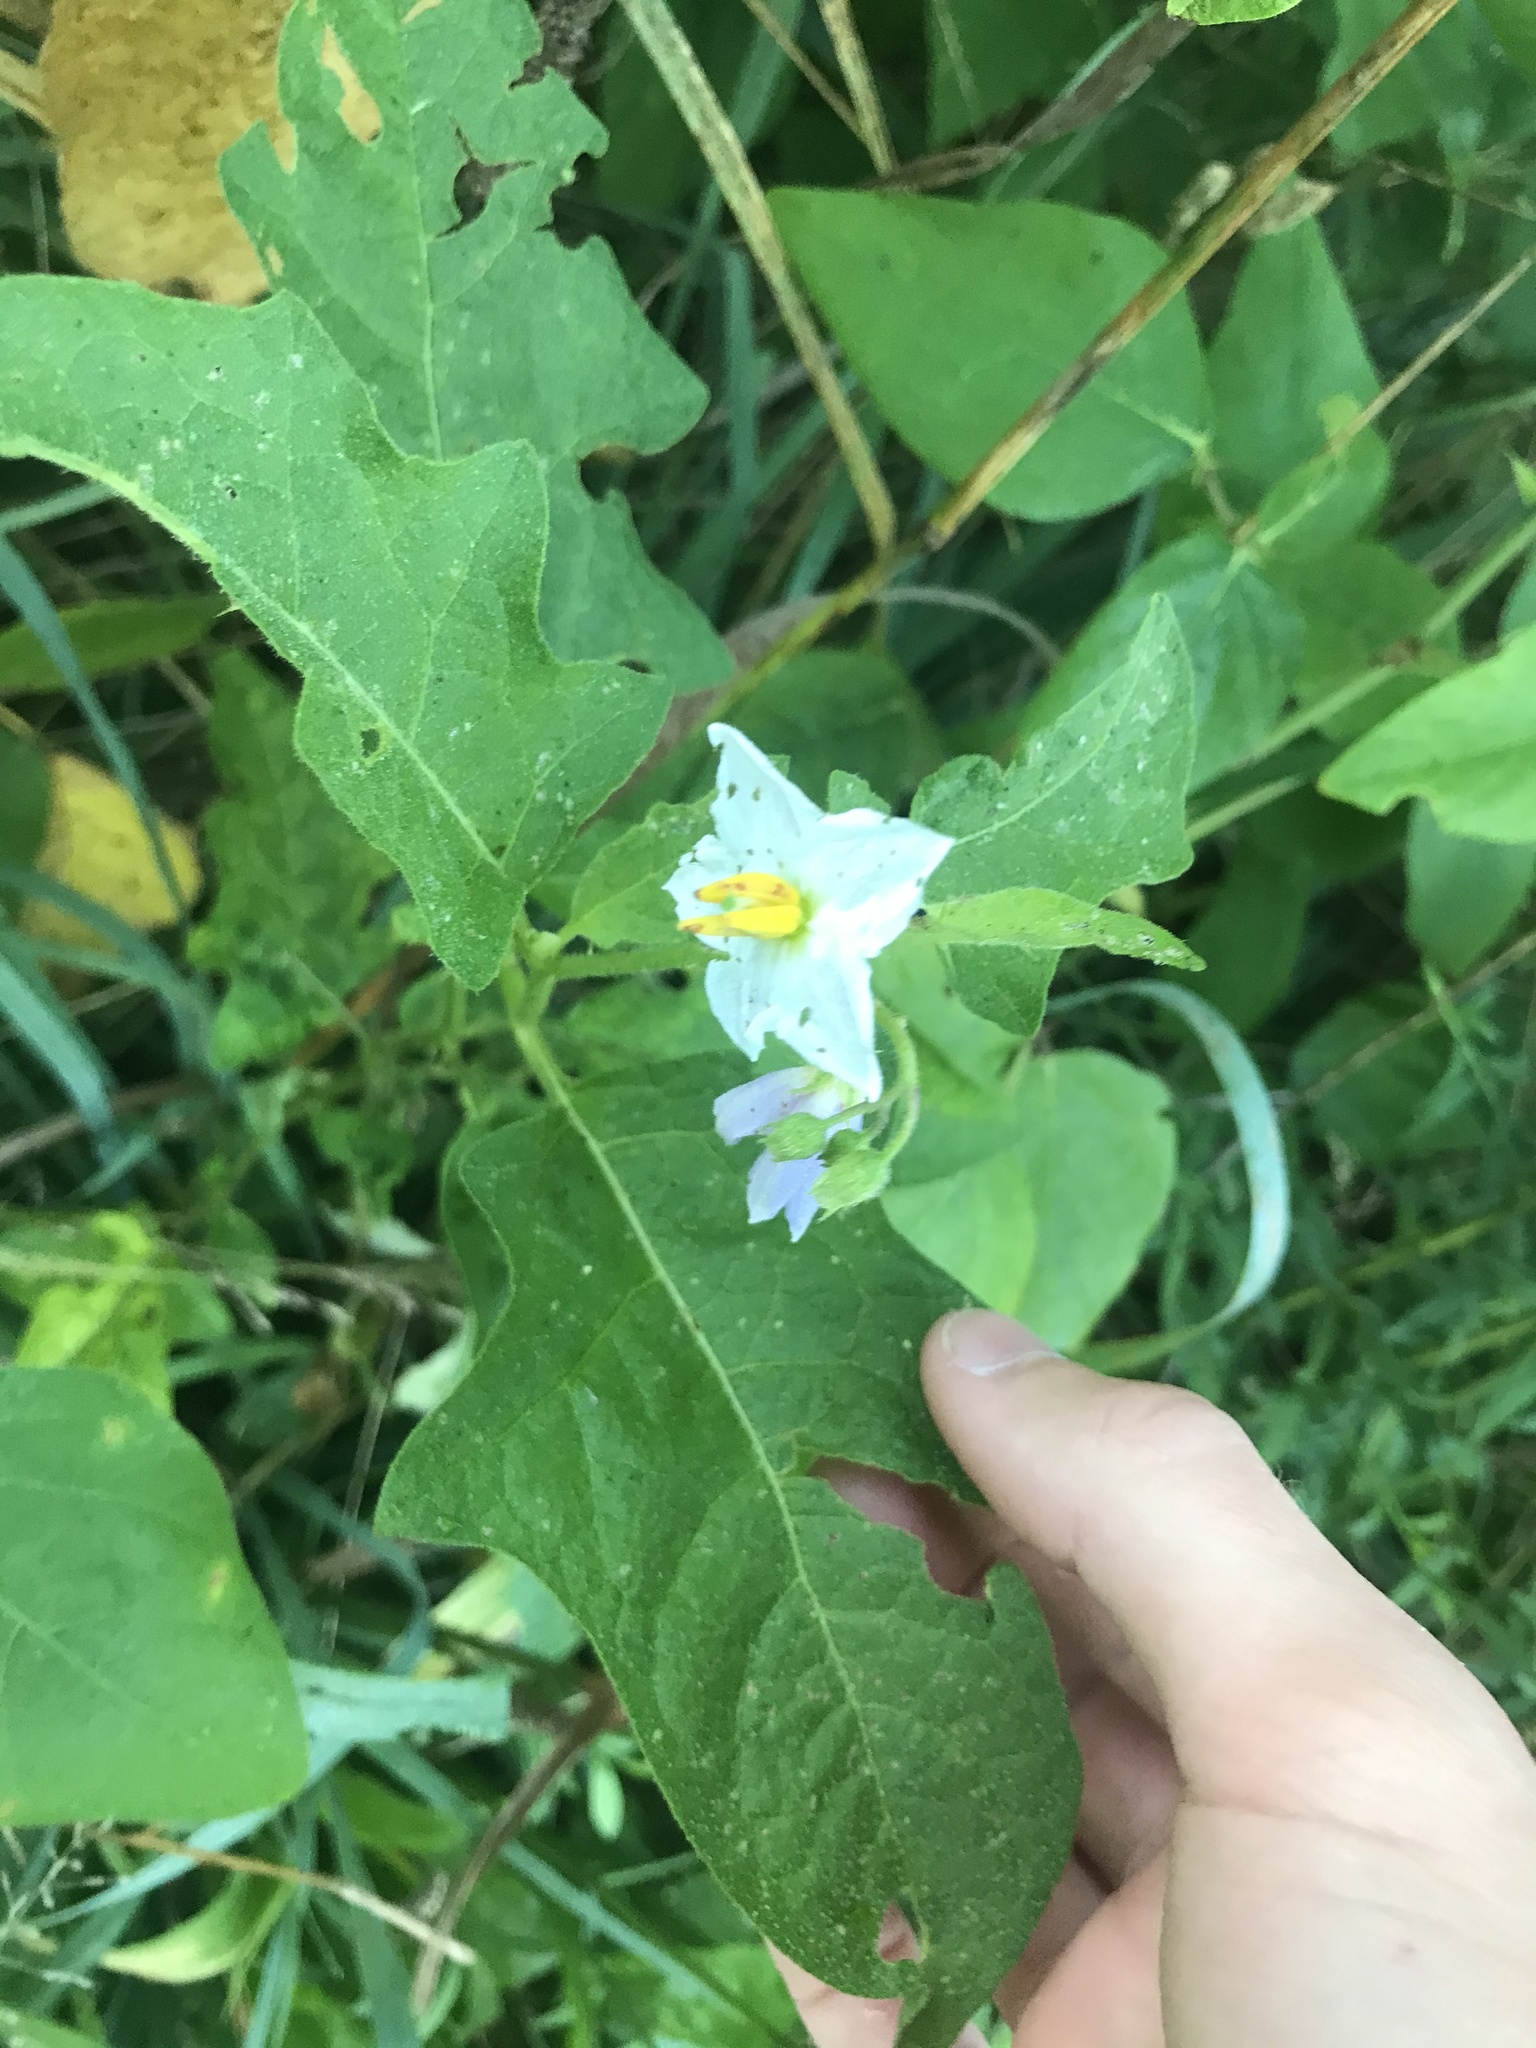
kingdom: Plantae
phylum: Tracheophyta
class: Magnoliopsida
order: Solanales
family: Solanaceae
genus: Solanum
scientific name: Solanum carolinense
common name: Horse-nettle
